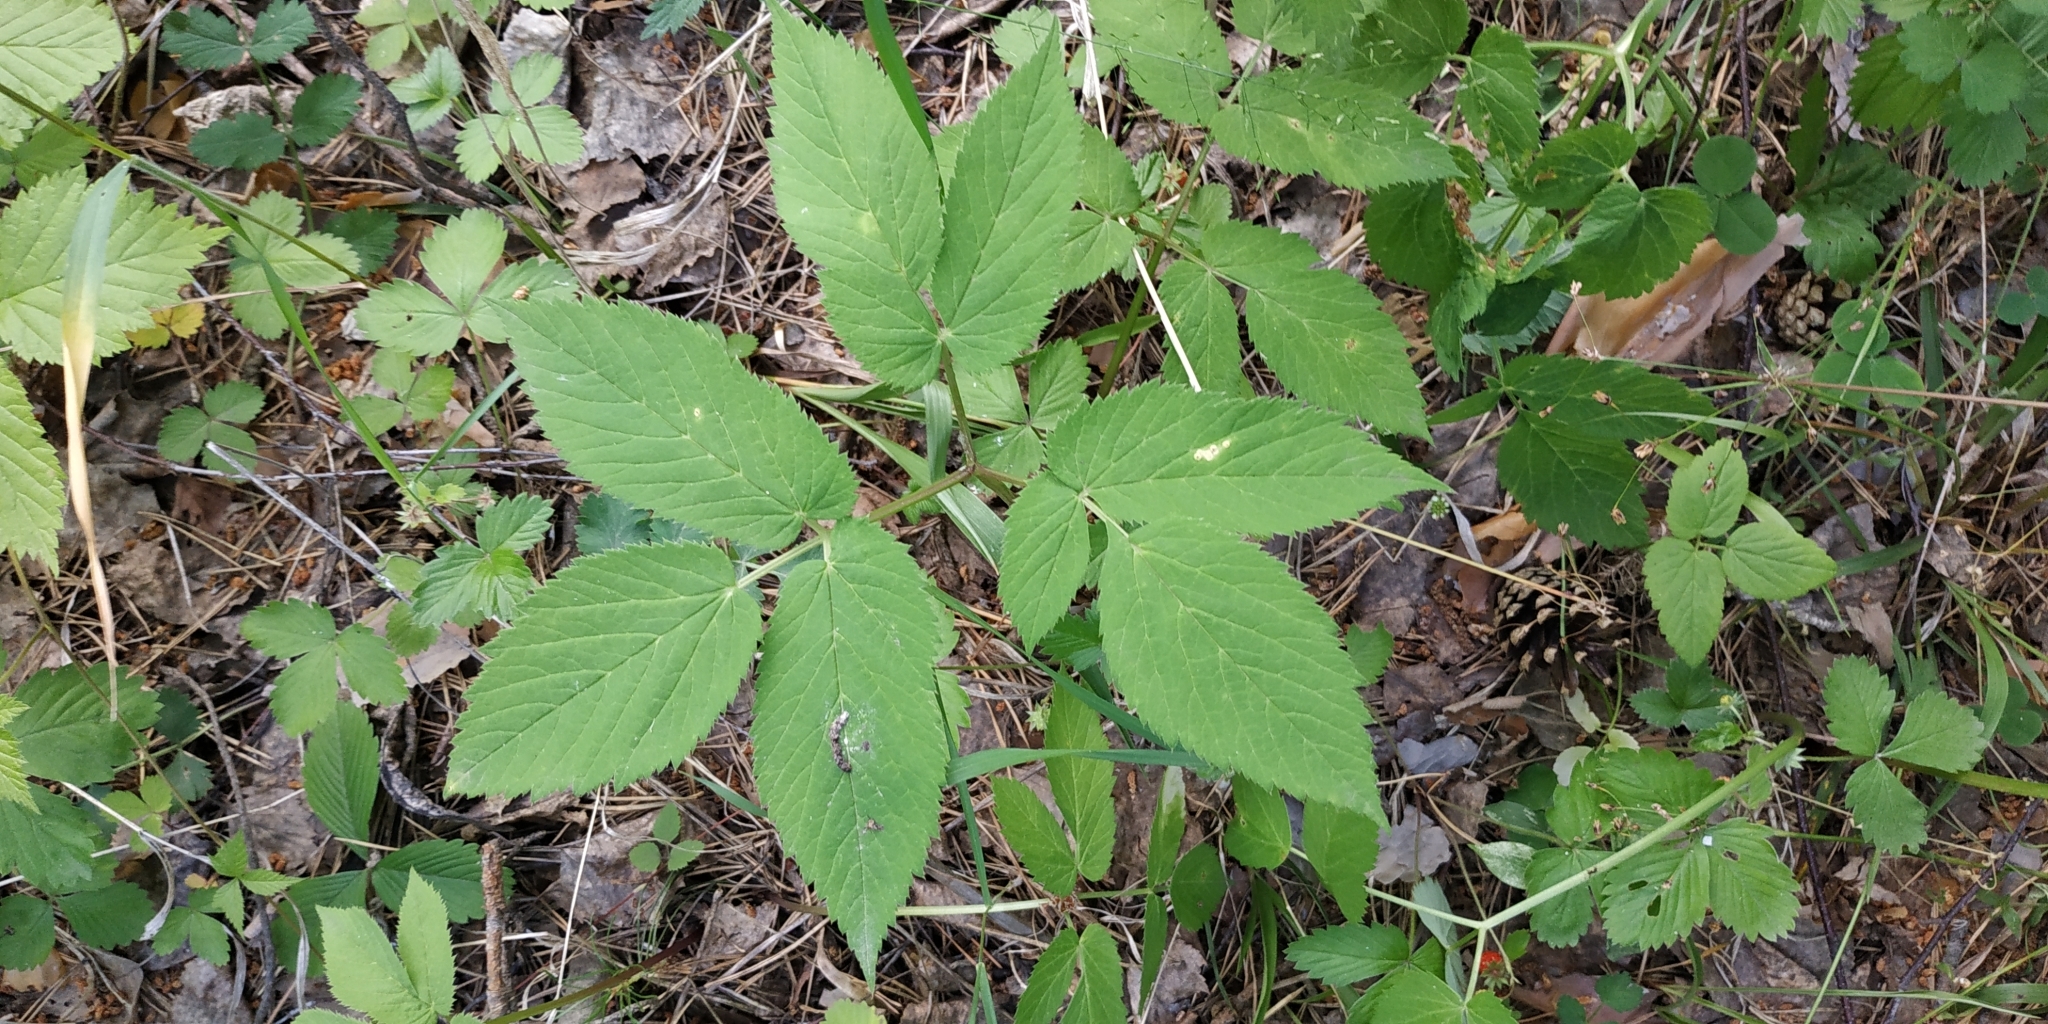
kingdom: Plantae
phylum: Tracheophyta
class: Magnoliopsida
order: Apiales
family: Apiaceae
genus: Aegopodium
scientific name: Aegopodium podagraria
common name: Ground-elder
